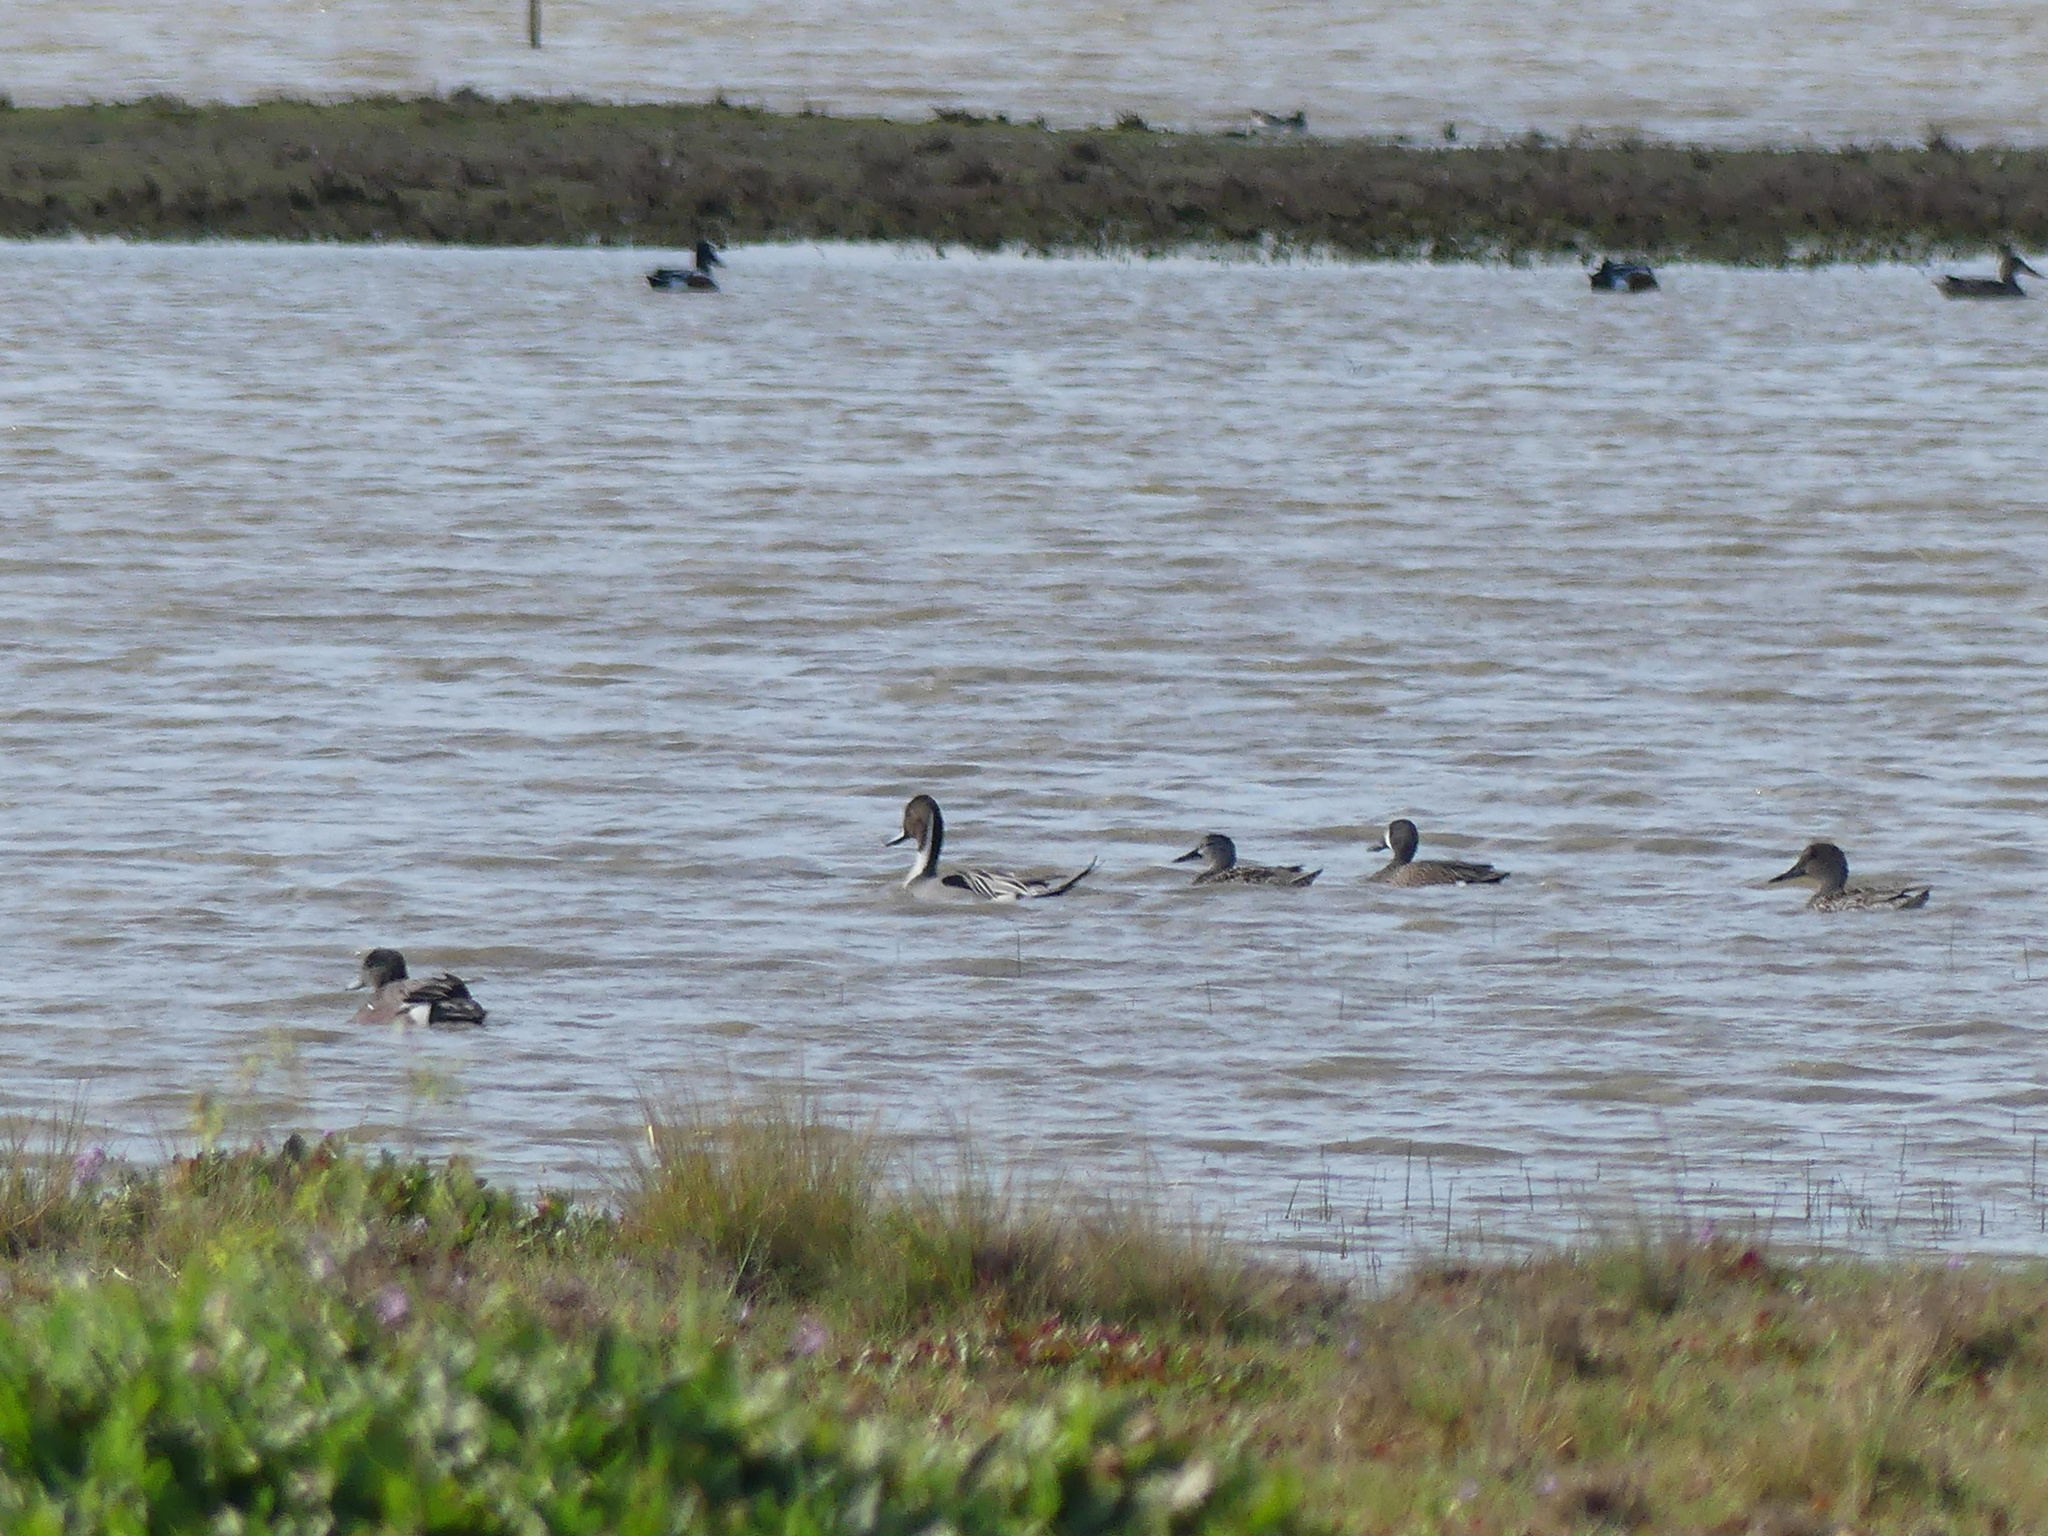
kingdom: Animalia
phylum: Chordata
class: Aves
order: Anseriformes
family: Anatidae
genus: Spatula
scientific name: Spatula discors
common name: Blue-winged teal
